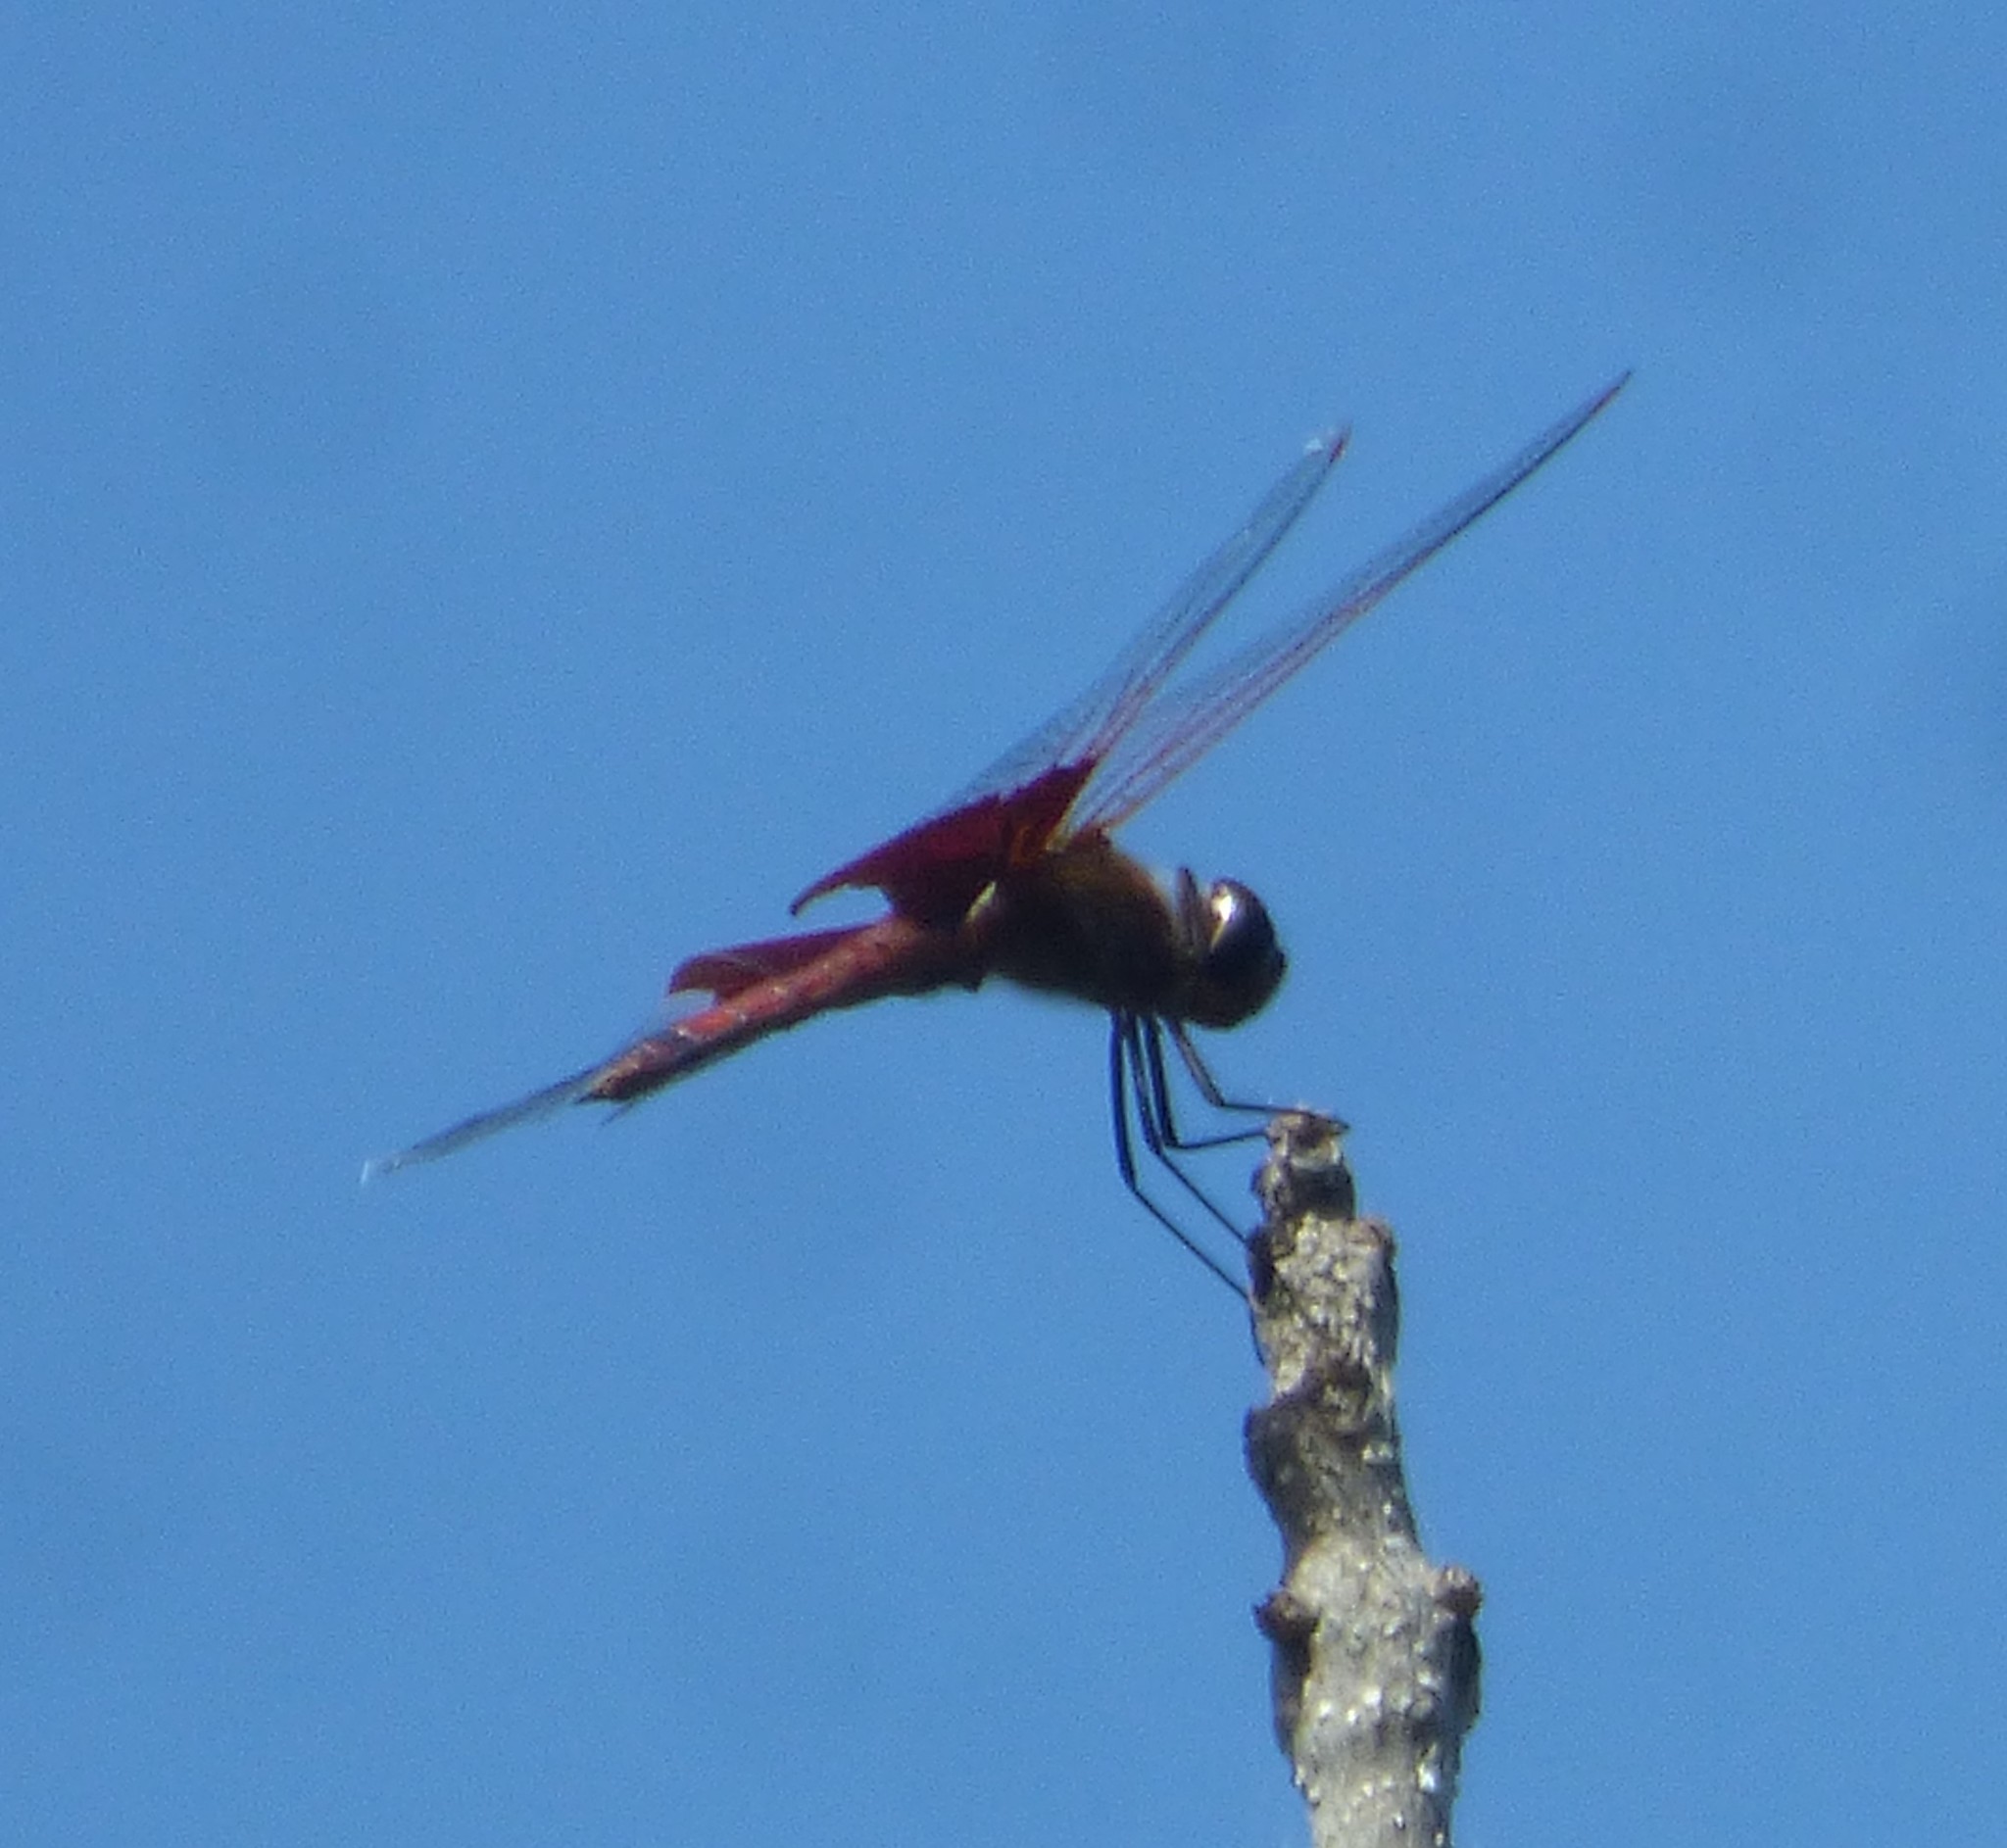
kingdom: Animalia
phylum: Arthropoda
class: Insecta
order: Odonata
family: Libellulidae
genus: Tramea
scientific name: Tramea carolina
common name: Carolina saddlebags
